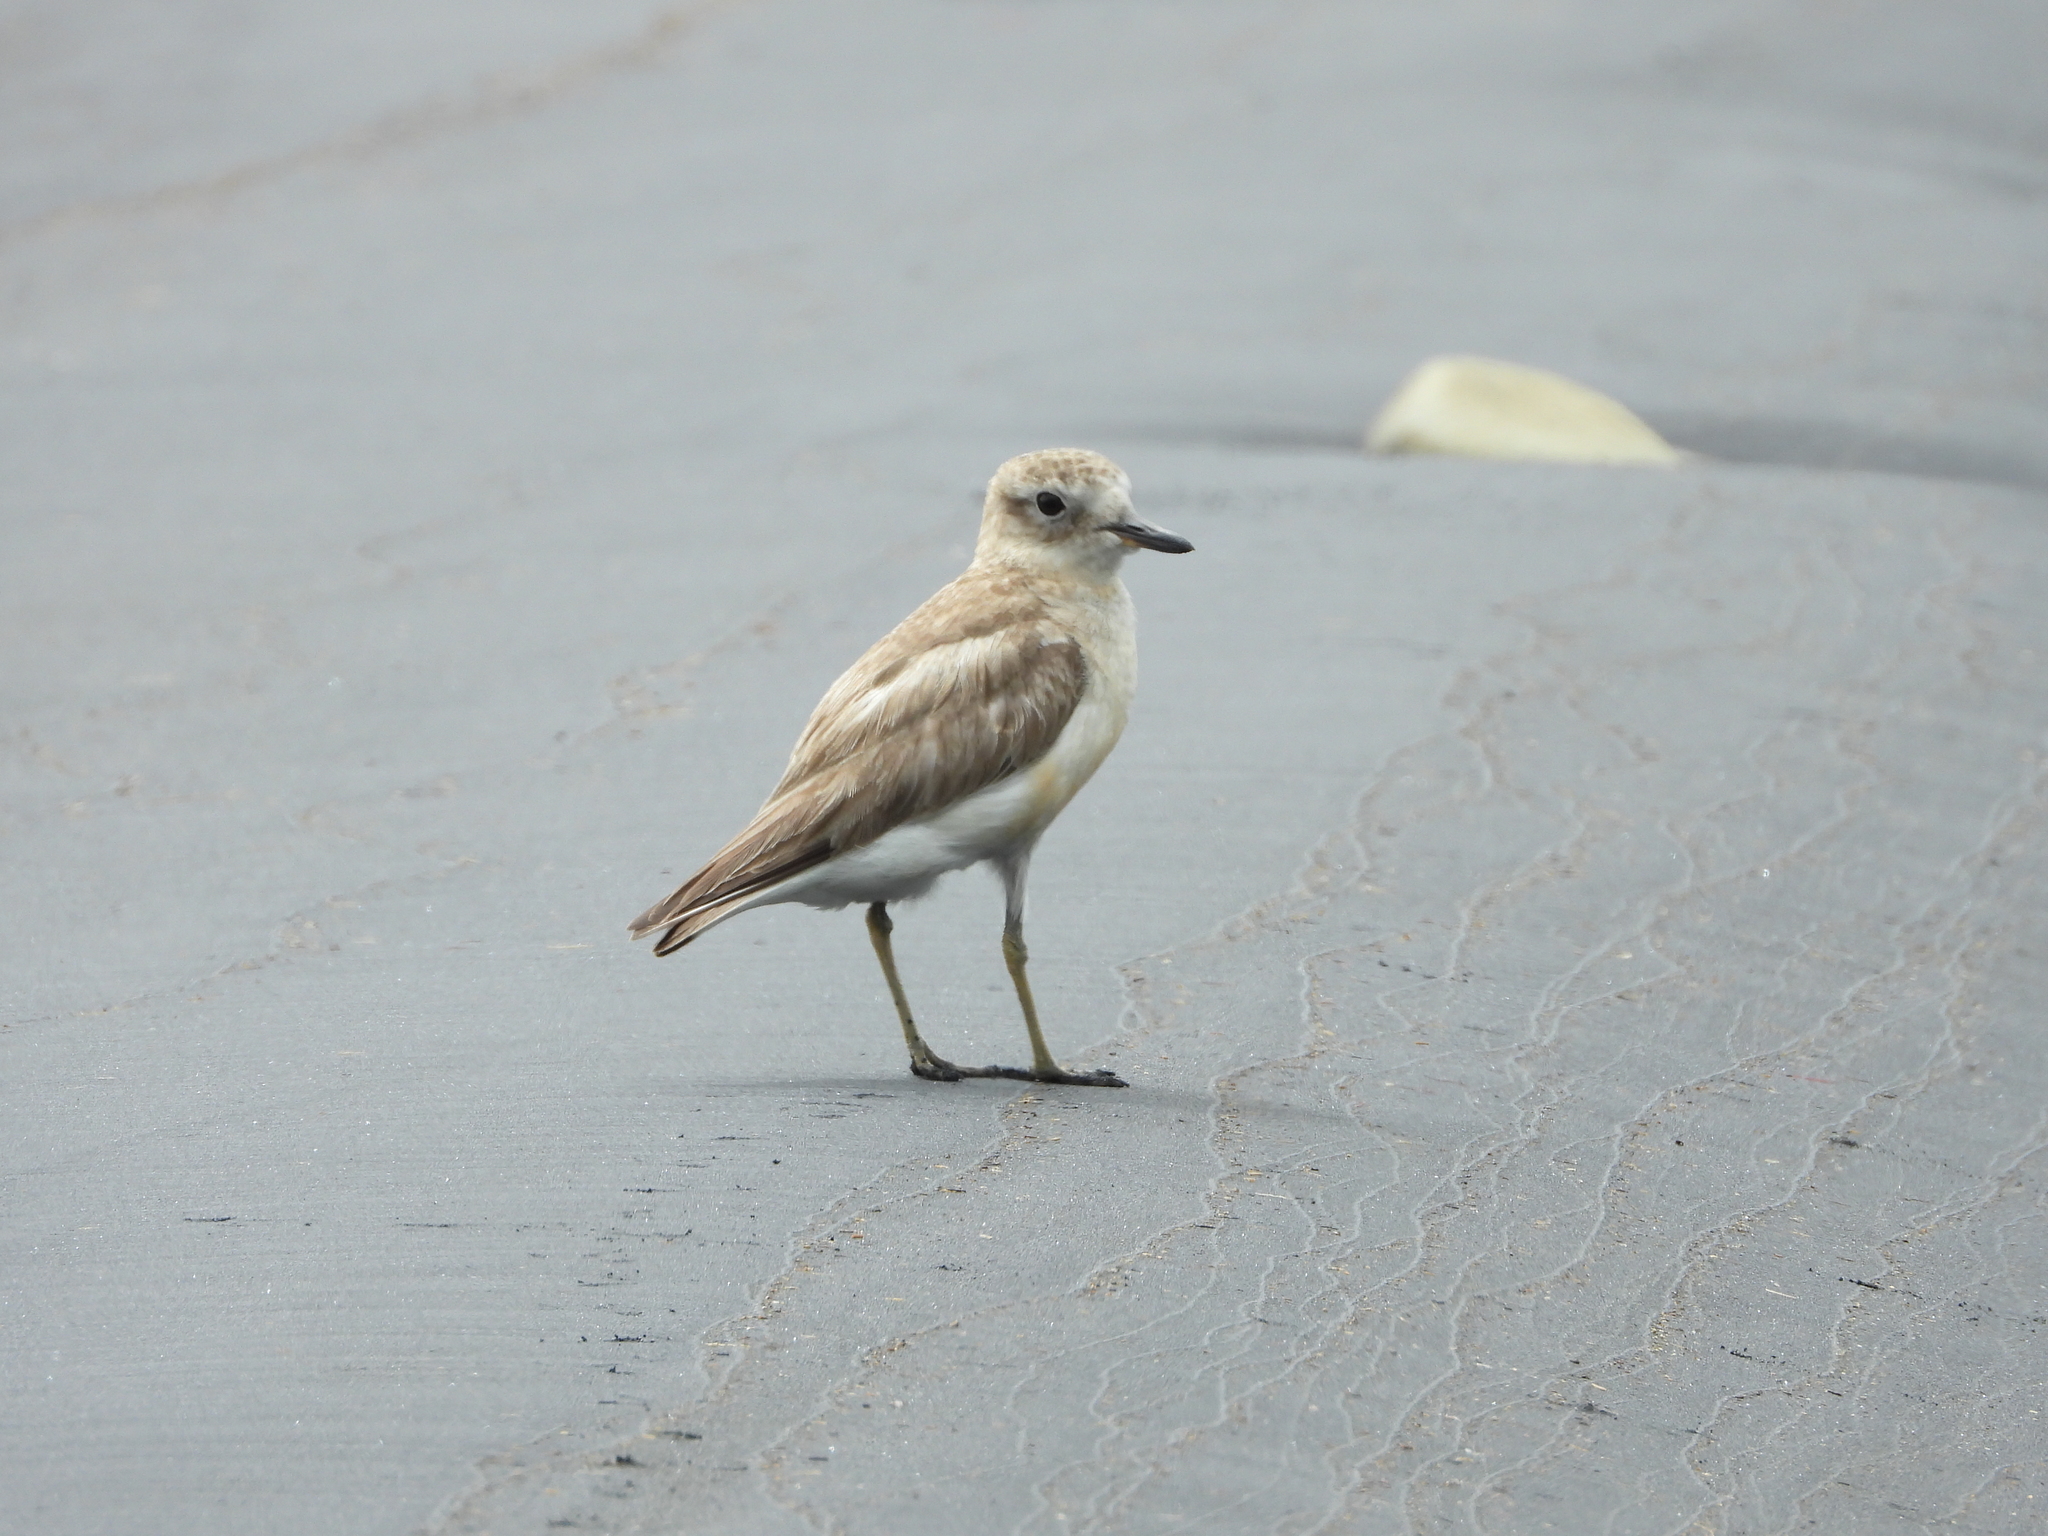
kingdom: Animalia
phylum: Chordata
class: Aves
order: Charadriiformes
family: Charadriidae
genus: Anarhynchus
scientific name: Anarhynchus
